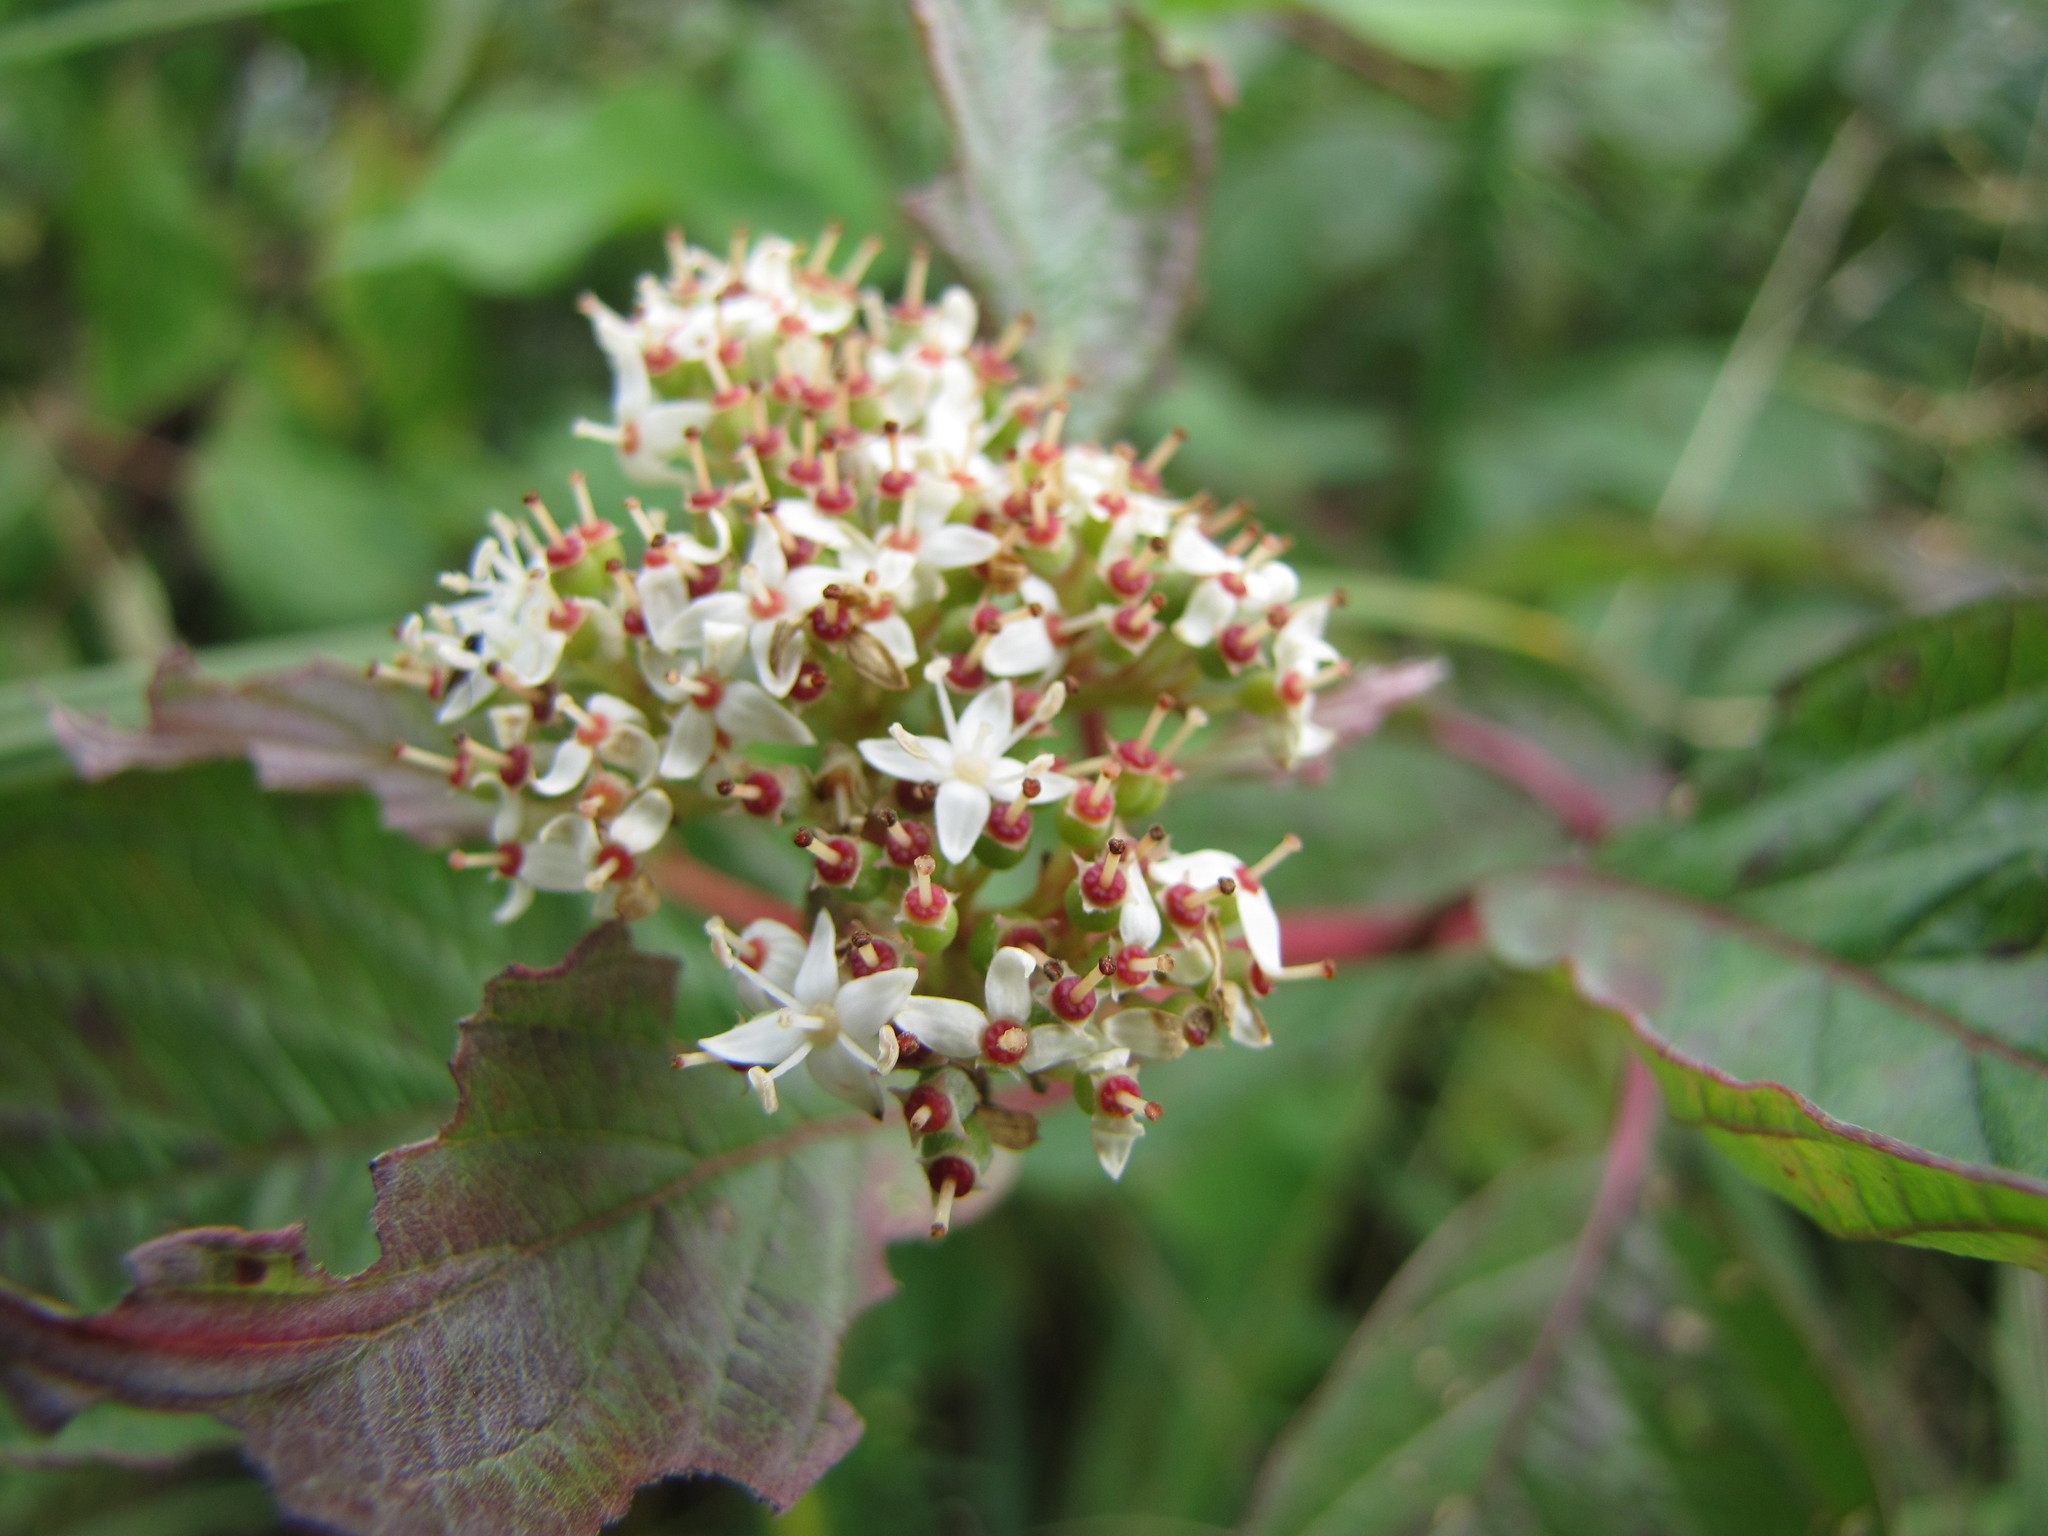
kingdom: Plantae
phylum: Tracheophyta
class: Magnoliopsida
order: Cornales
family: Cornaceae
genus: Cornus
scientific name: Cornus sericea
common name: Red-osier dogwood
